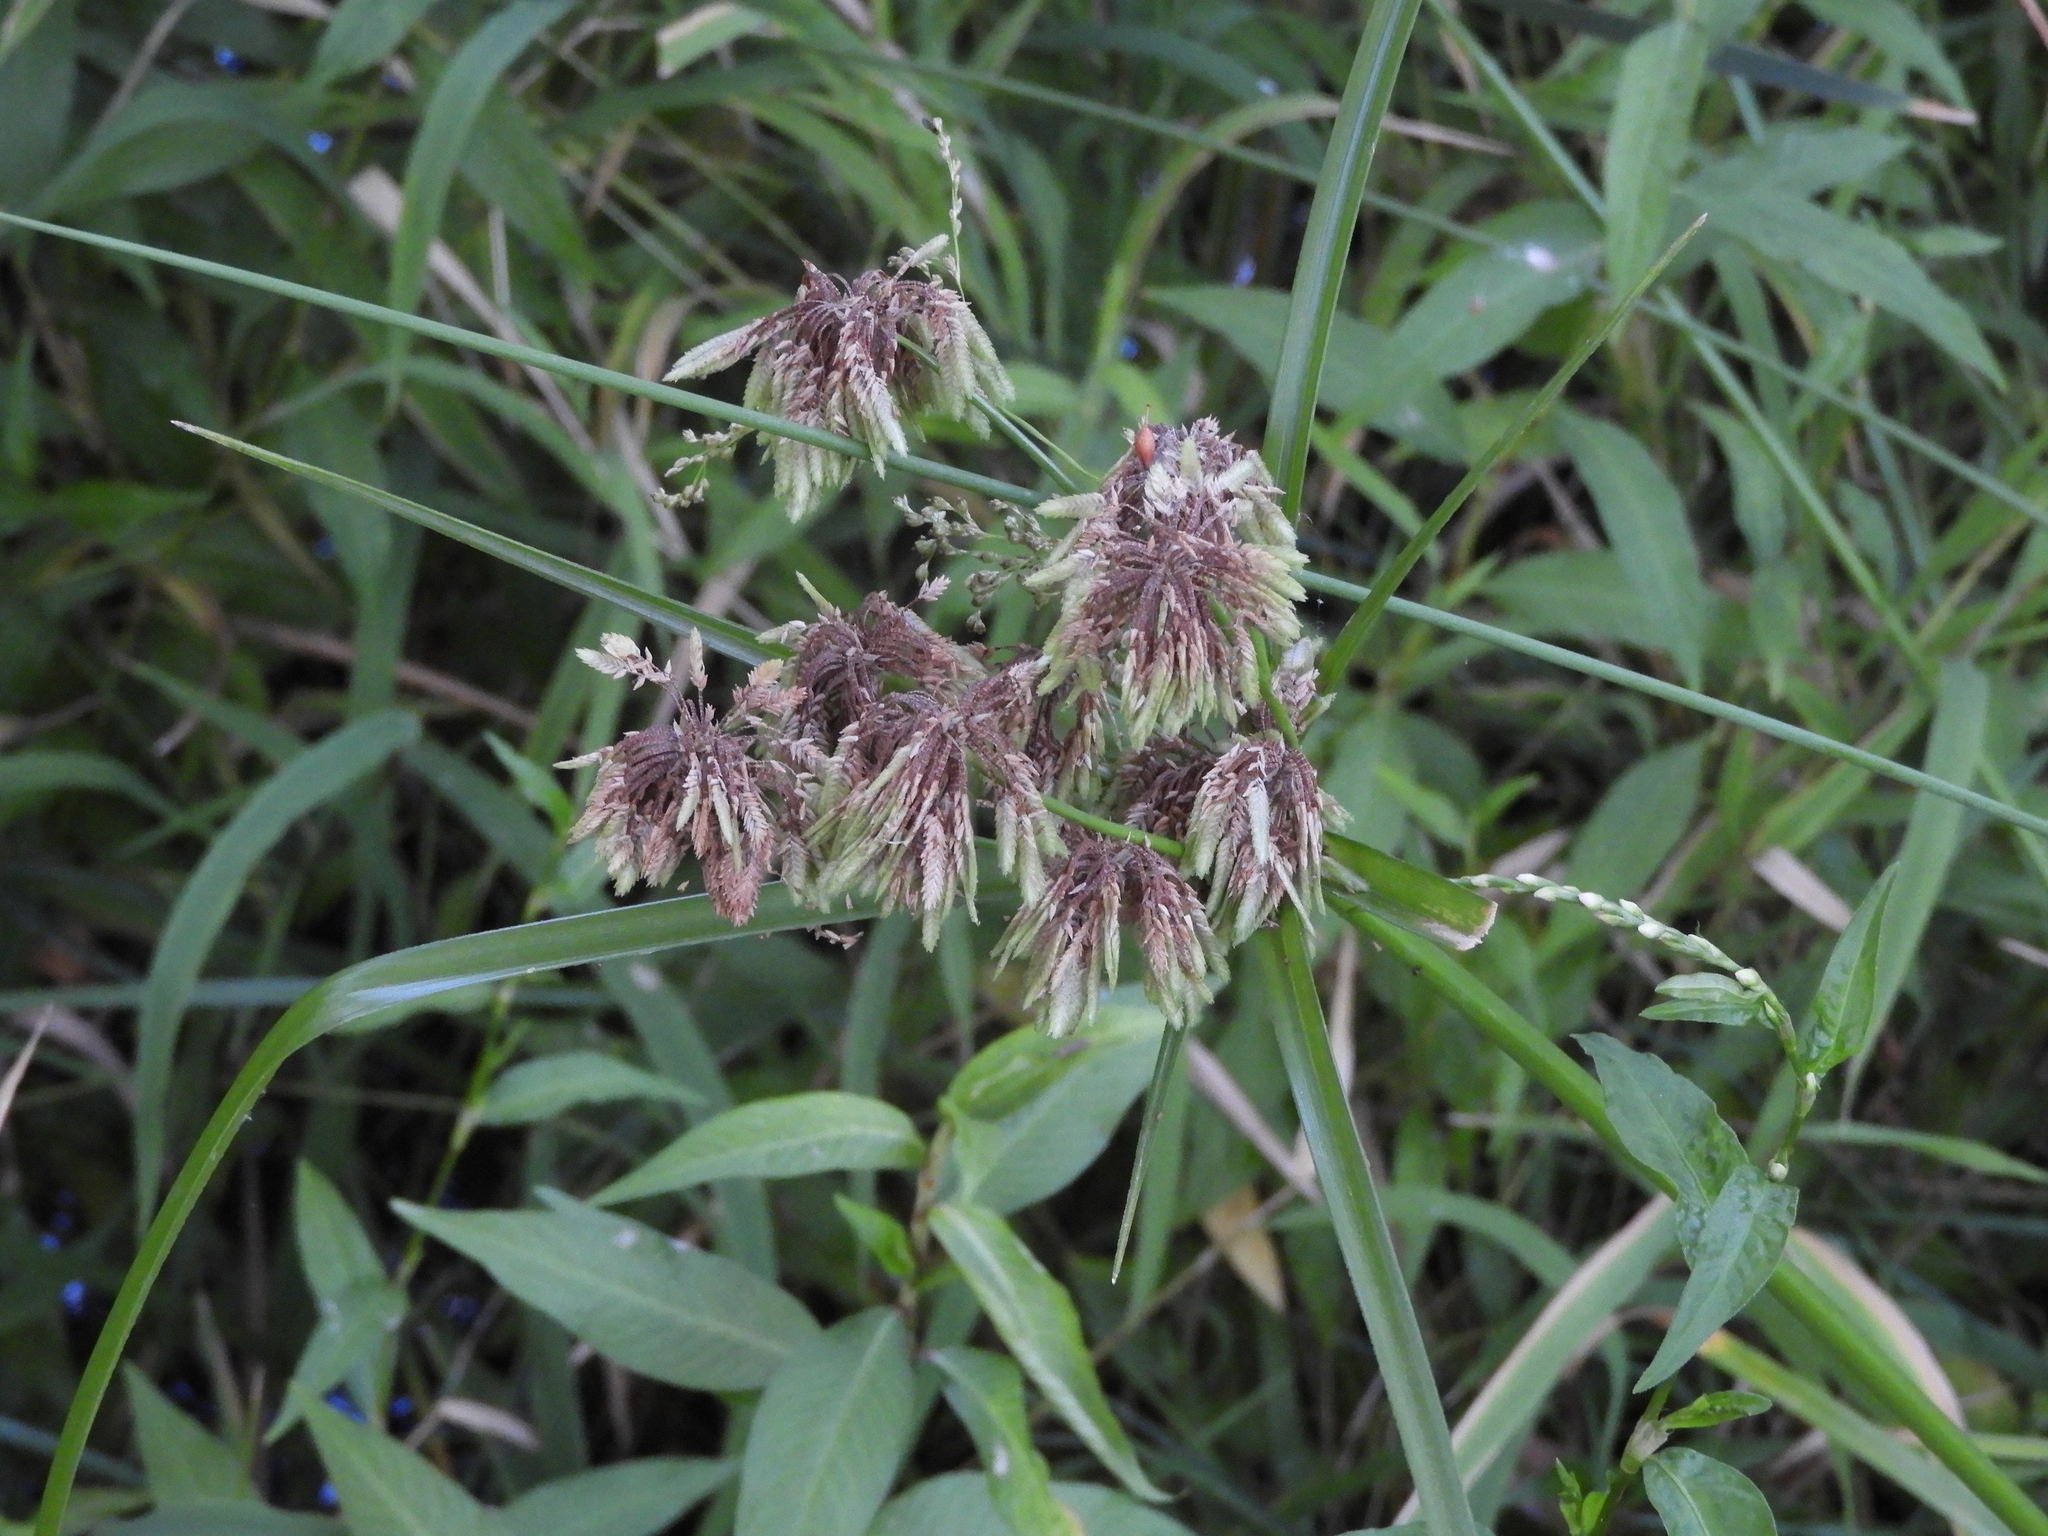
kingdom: Plantae
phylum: Tracheophyta
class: Liliopsida
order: Poales
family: Cyperaceae
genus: Cyperus
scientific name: Cyperus eragrostis
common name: Tall flatsedge
